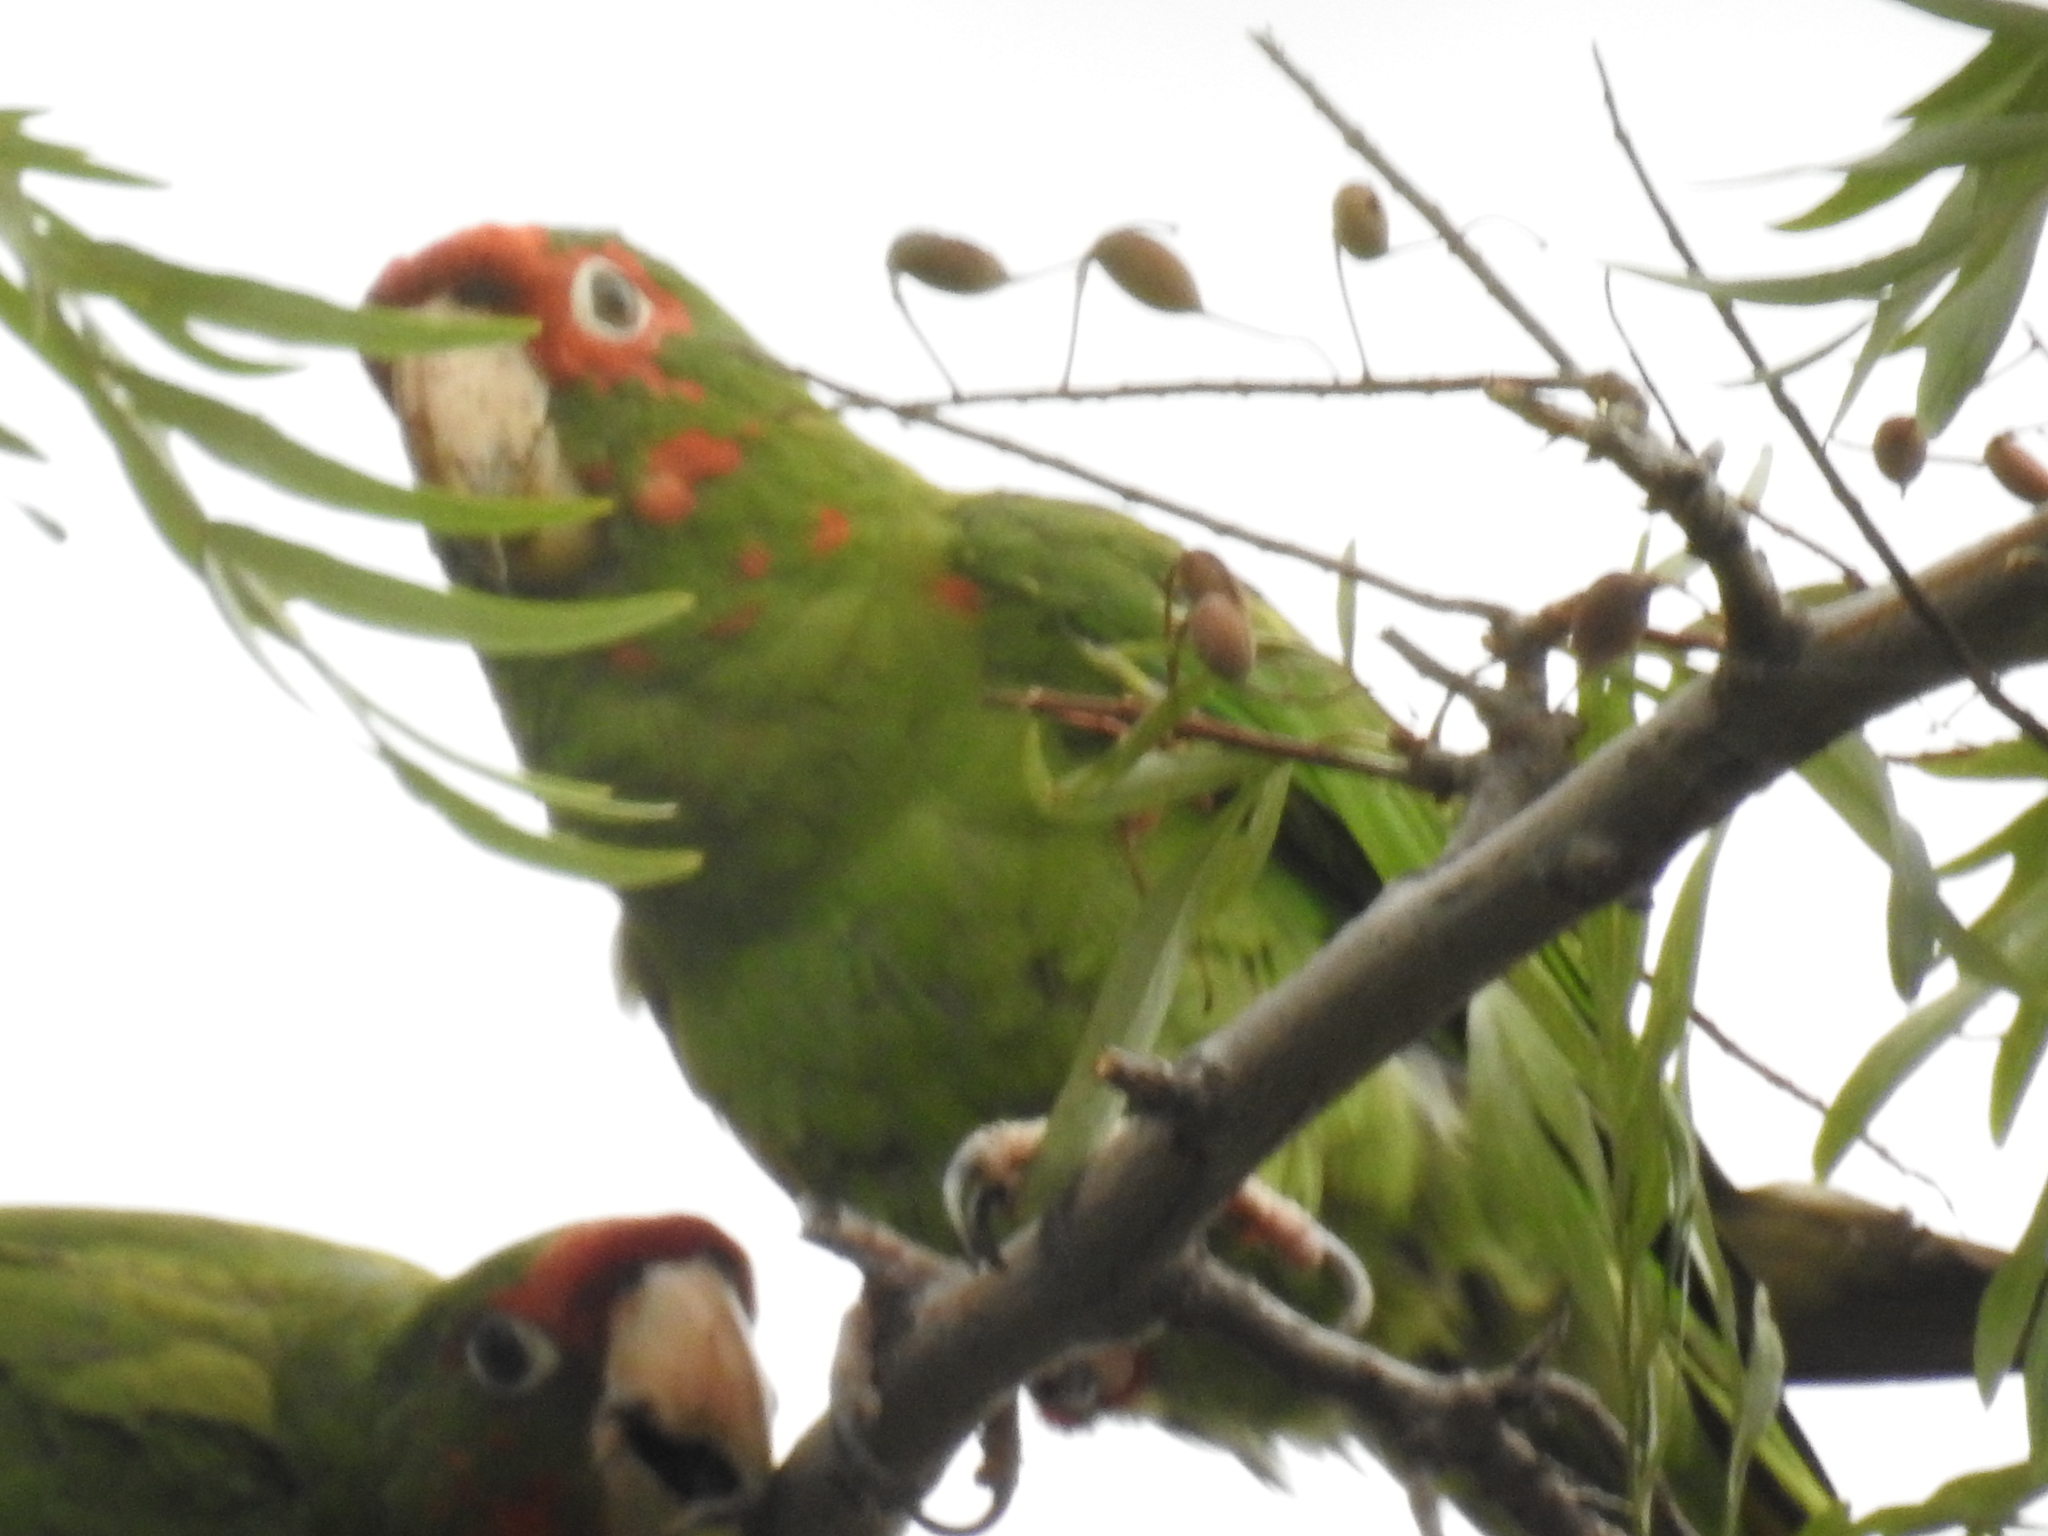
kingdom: Animalia
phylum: Chordata
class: Aves
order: Psittaciformes
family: Psittacidae
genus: Aratinga
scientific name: Aratinga mitrata
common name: Mitred parakeet
